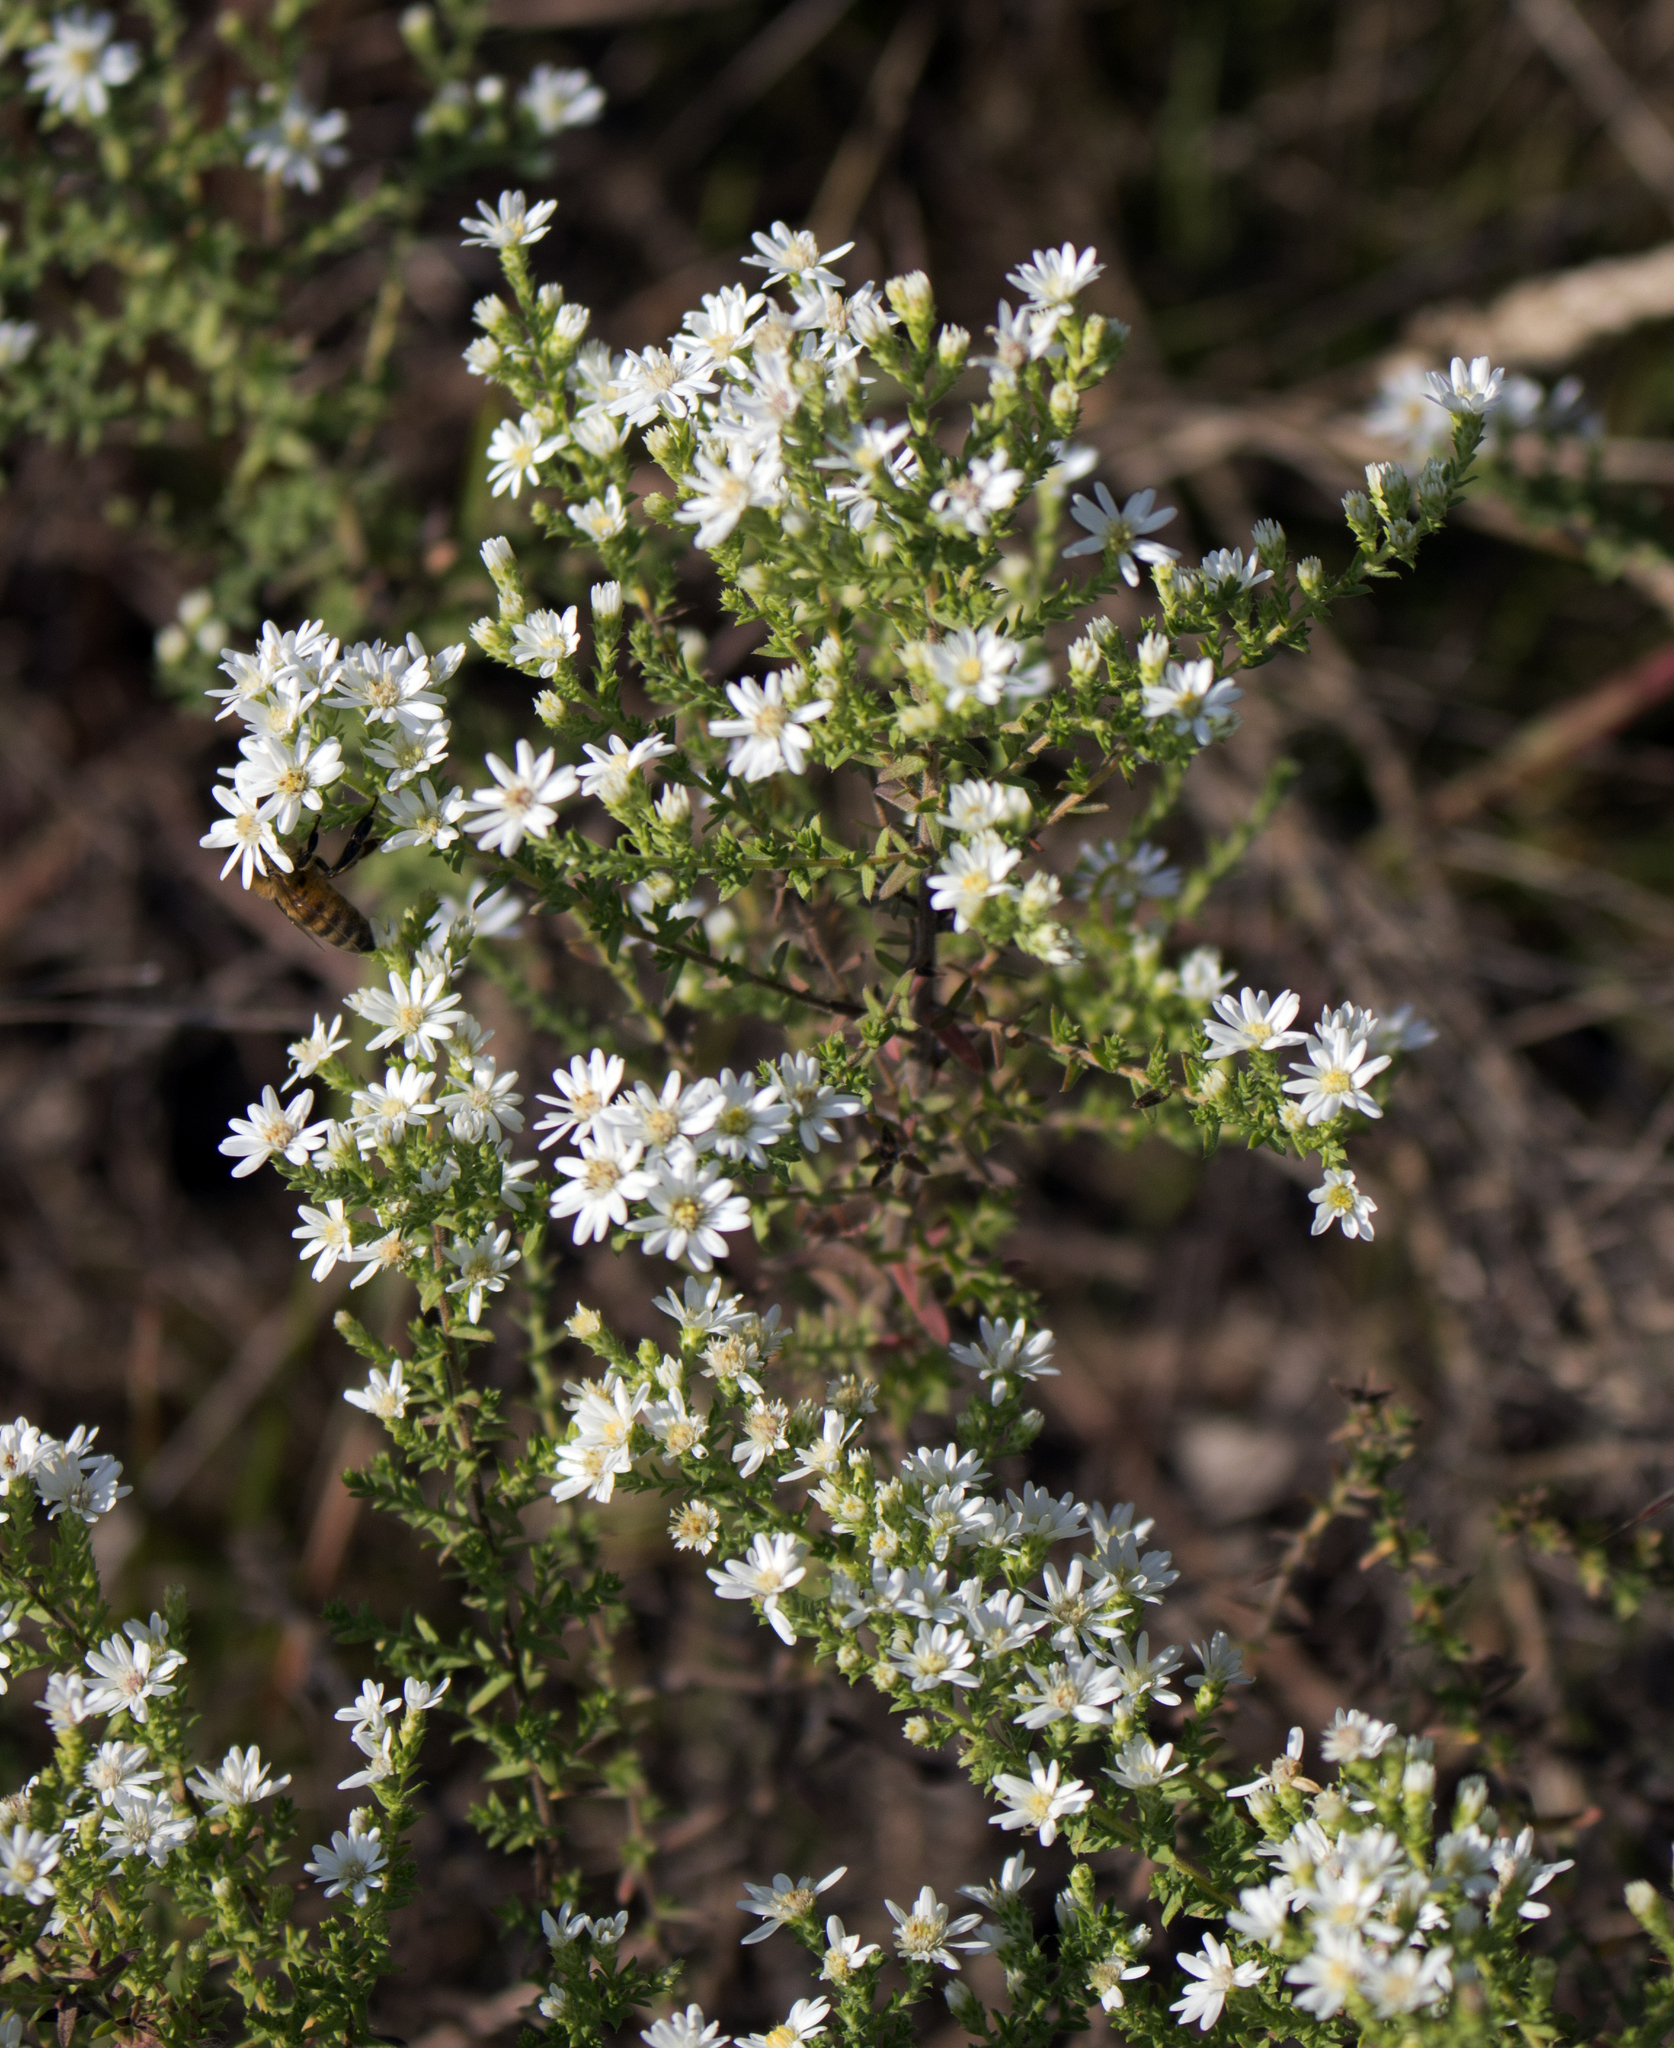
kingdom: Plantae
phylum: Tracheophyta
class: Magnoliopsida
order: Asterales
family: Asteraceae
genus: Symphyotrichum
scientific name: Symphyotrichum ericoides
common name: Heath aster
